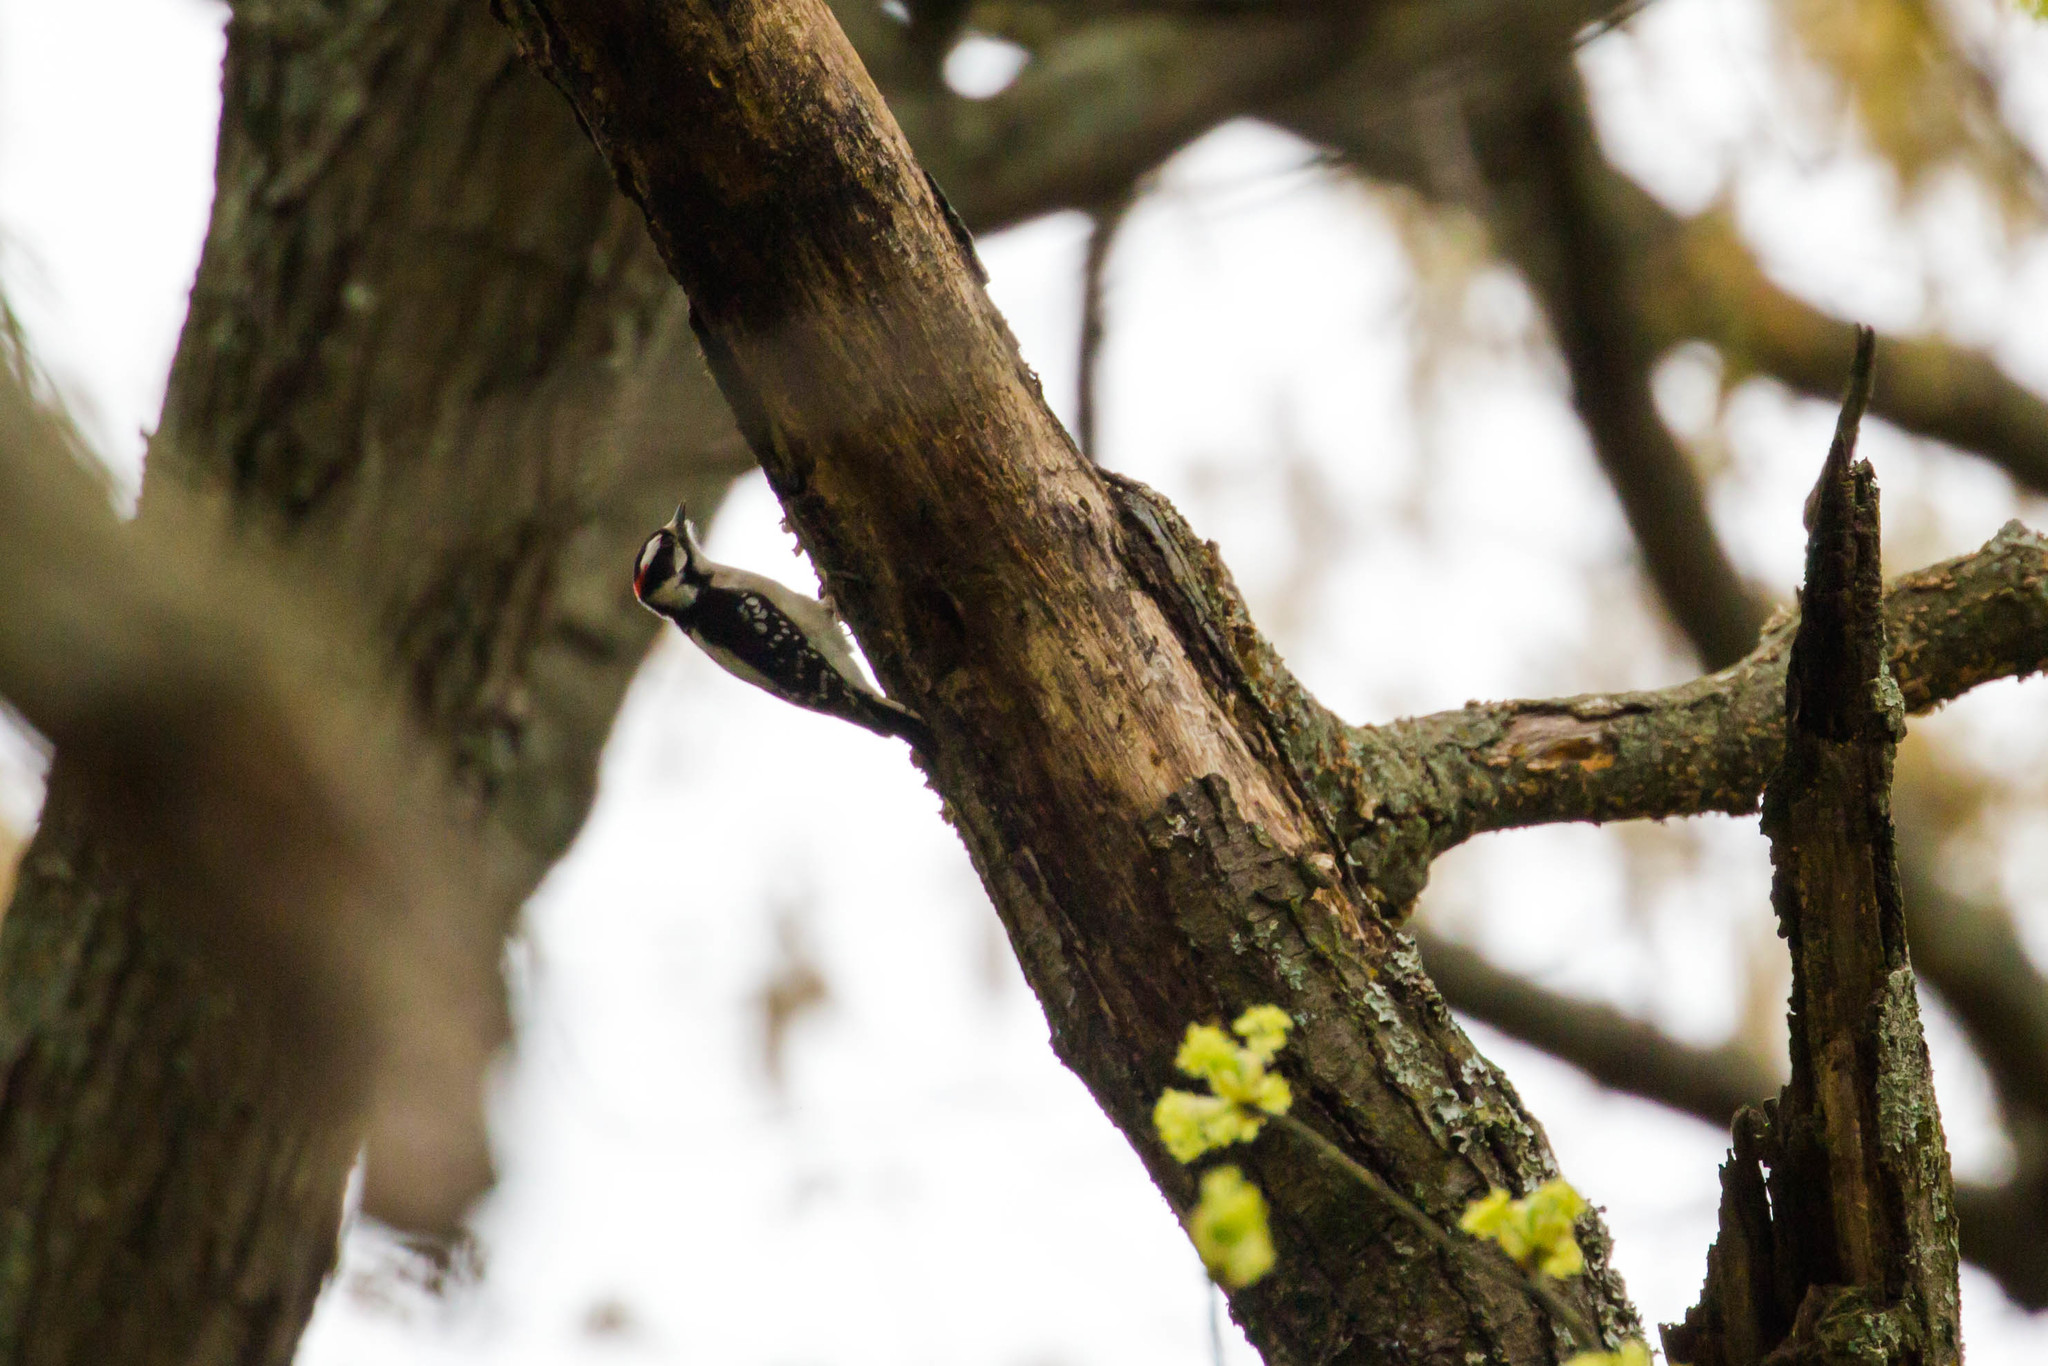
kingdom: Animalia
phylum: Chordata
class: Aves
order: Piciformes
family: Picidae
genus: Dryobates
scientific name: Dryobates pubescens
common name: Downy woodpecker
